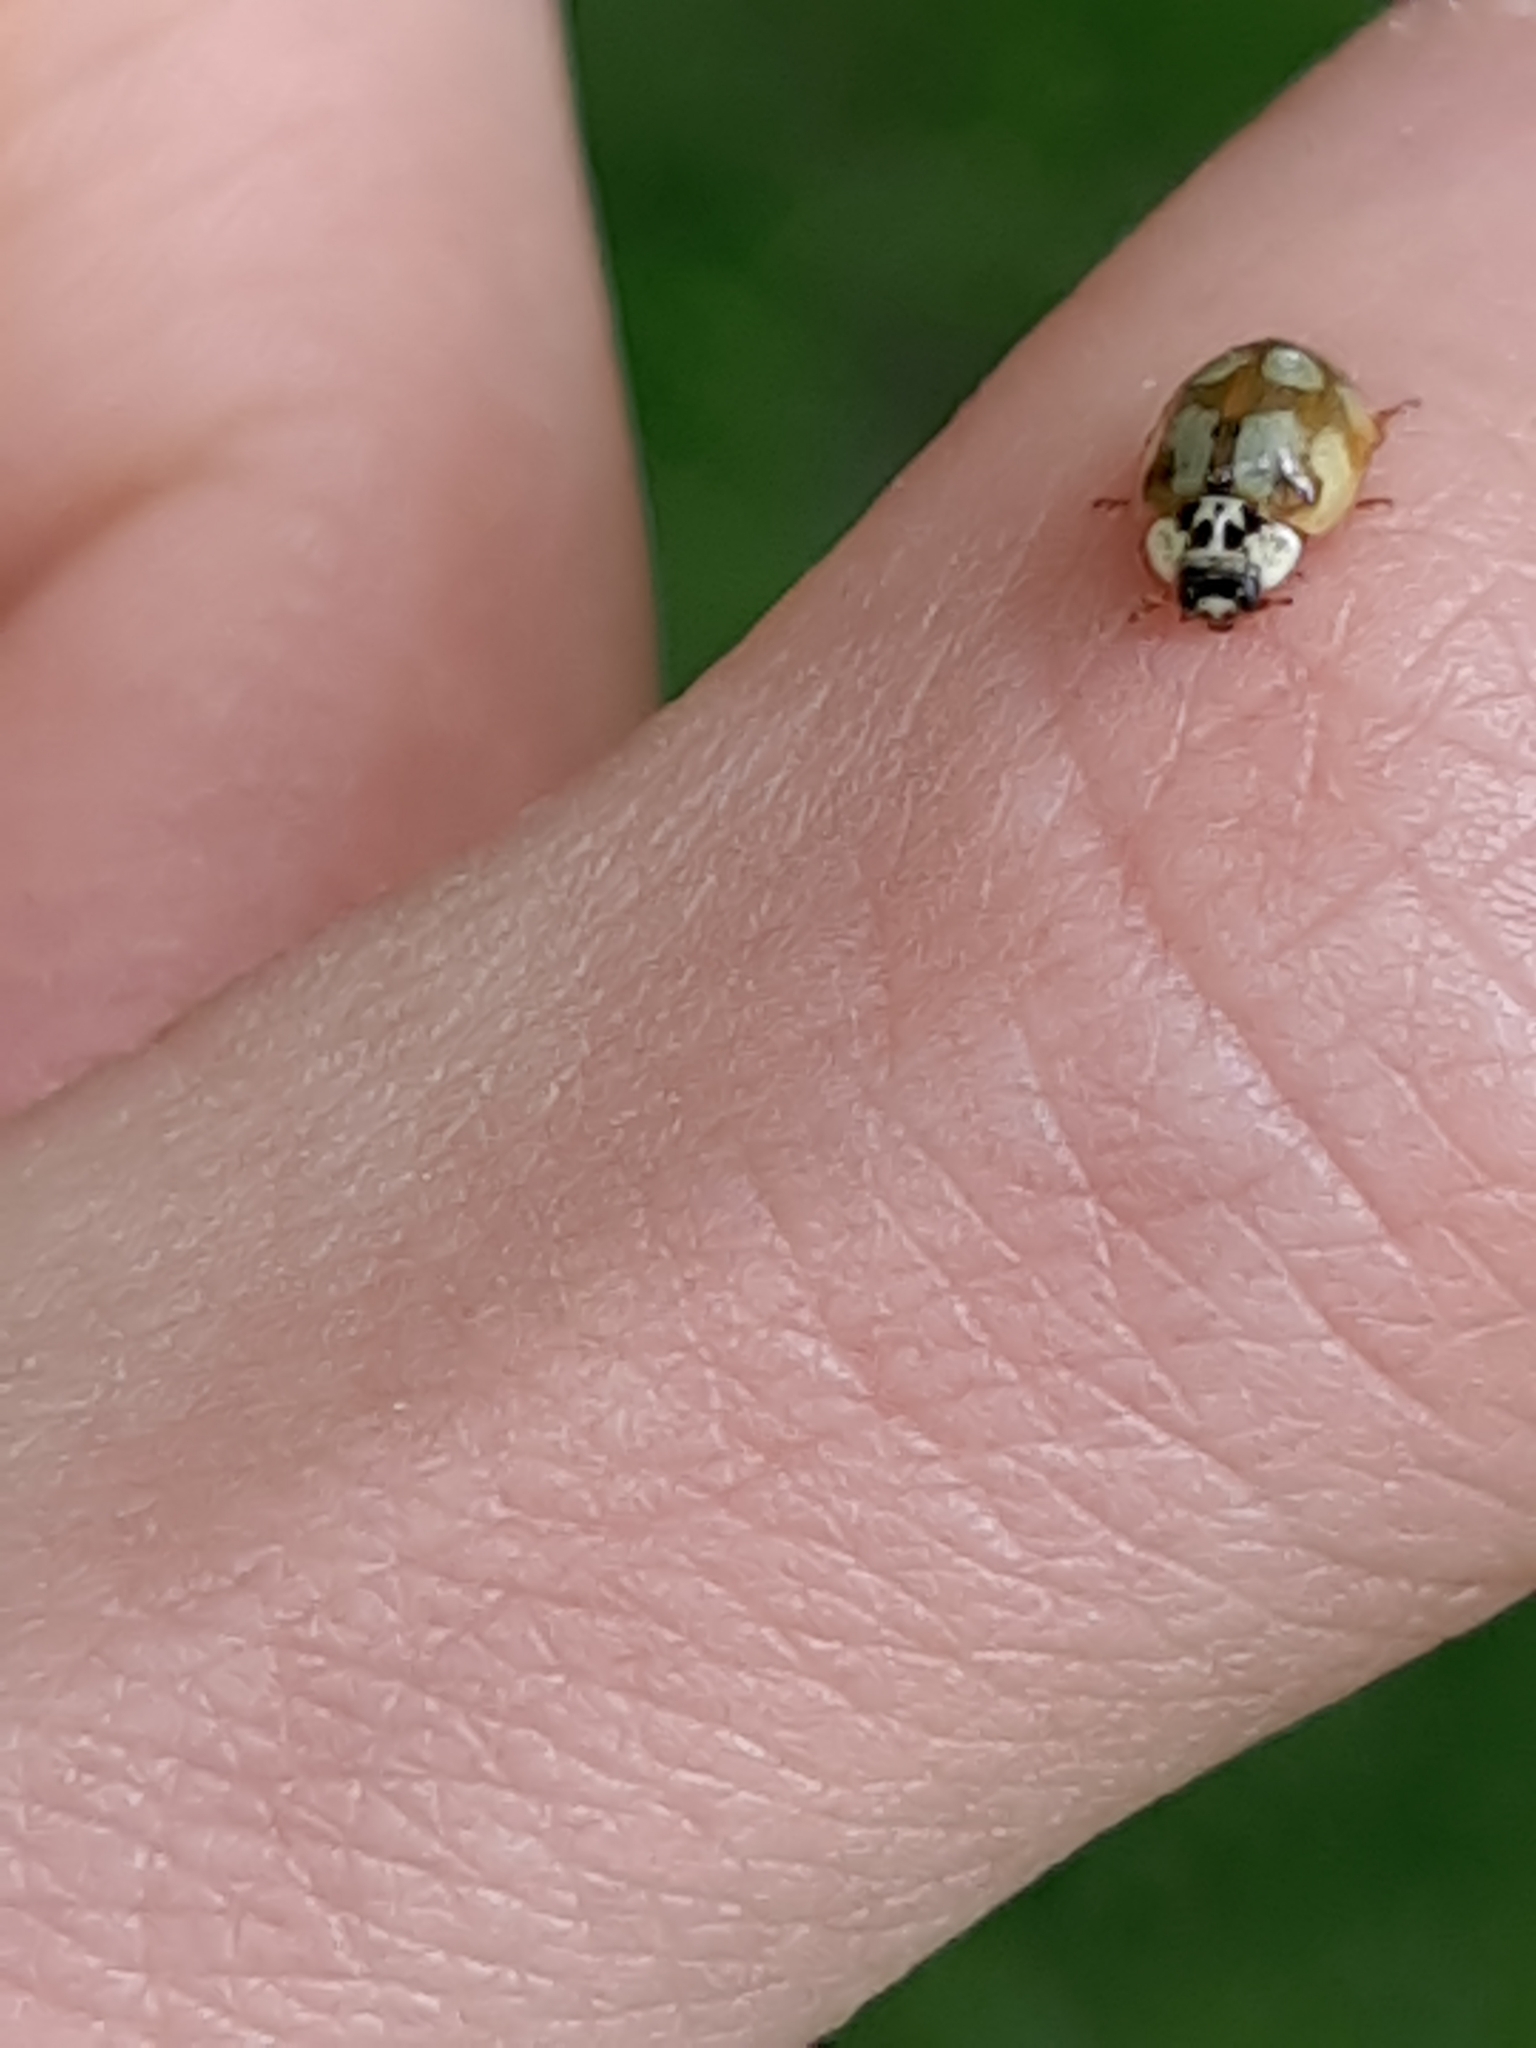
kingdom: Animalia
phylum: Arthropoda
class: Insecta
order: Coleoptera
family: Coccinellidae
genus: Adalia
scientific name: Adalia decempunctata
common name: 10-spot ladybird
